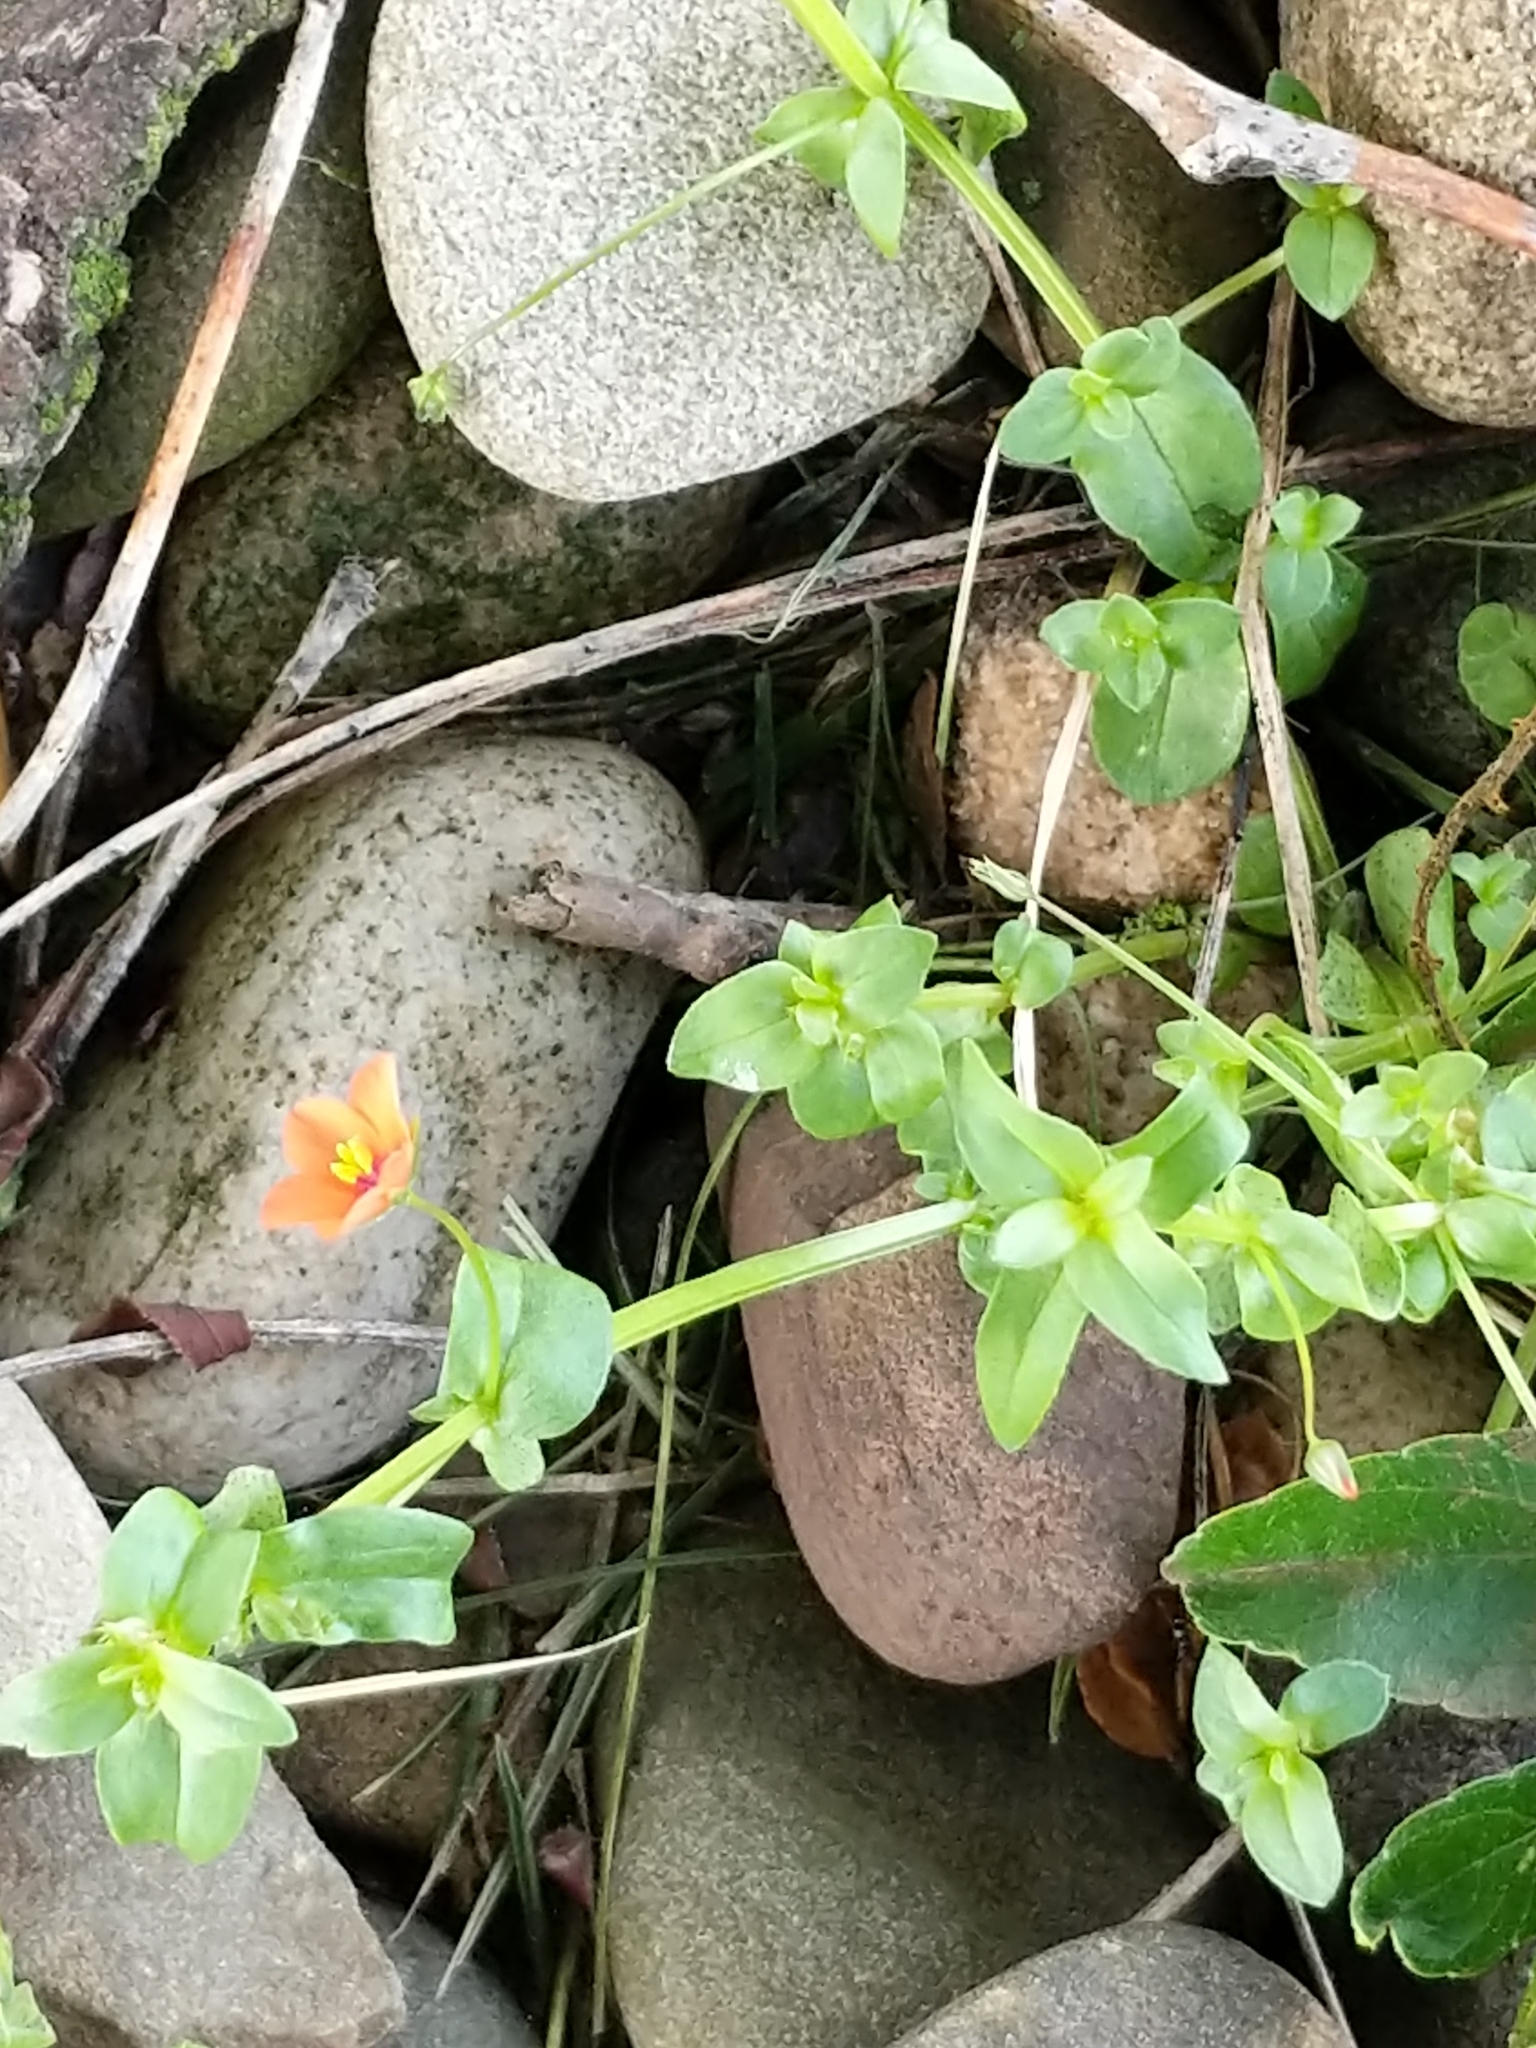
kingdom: Plantae
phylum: Tracheophyta
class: Magnoliopsida
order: Ericales
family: Primulaceae
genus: Lysimachia
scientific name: Lysimachia arvensis
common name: Scarlet pimpernel
